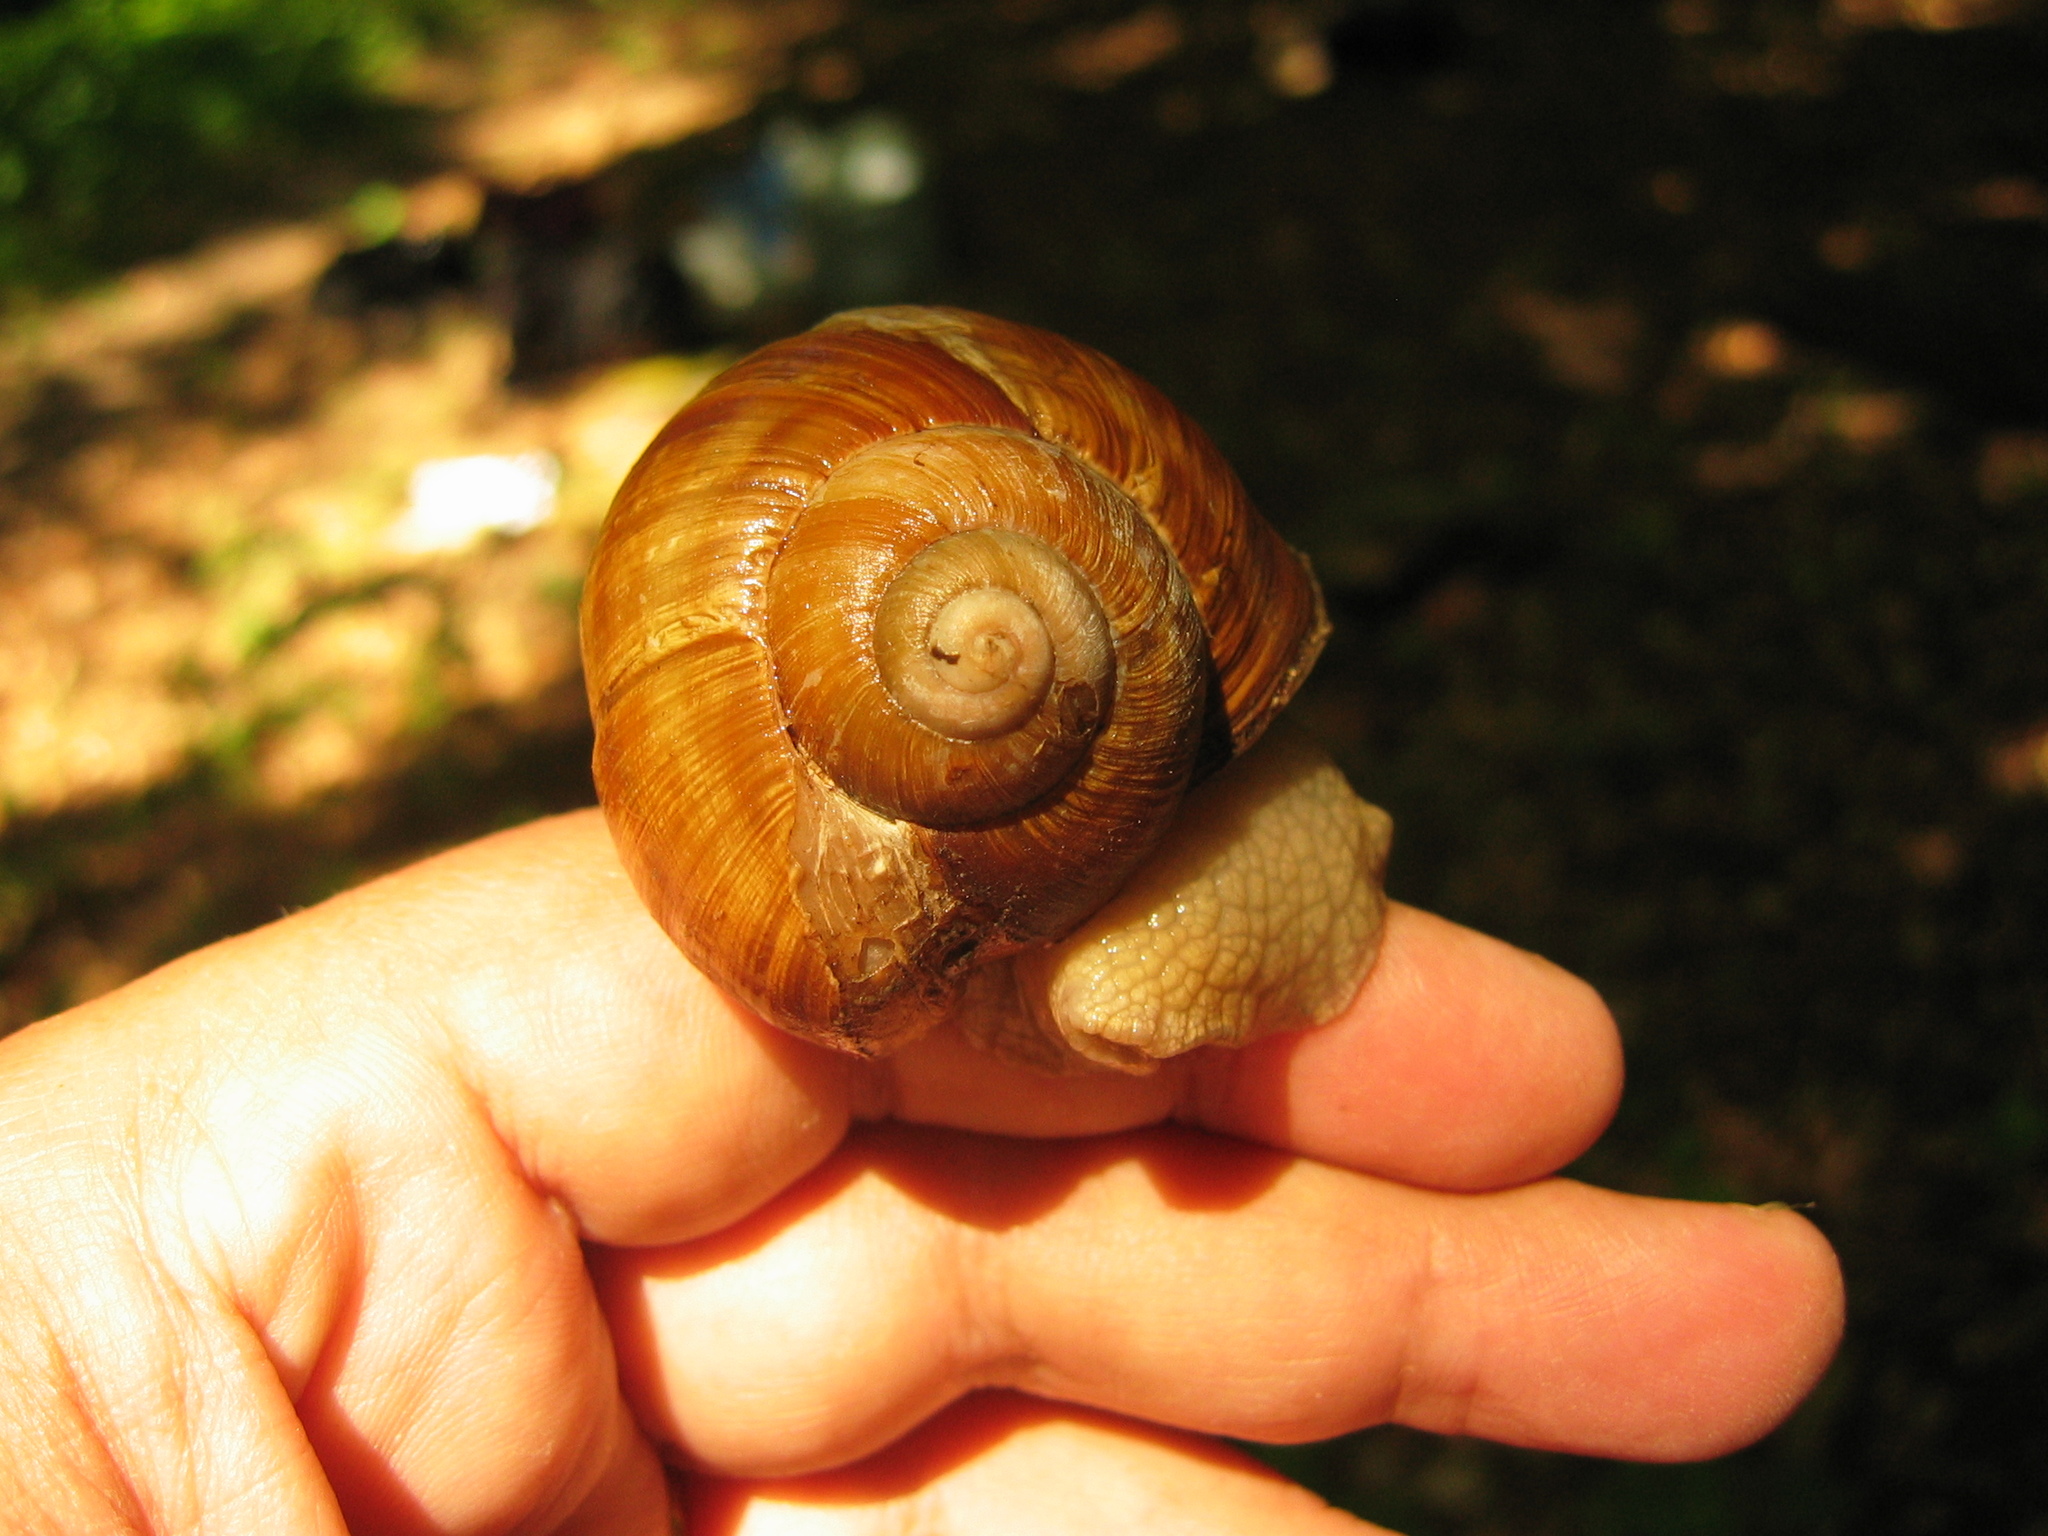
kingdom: Animalia
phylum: Mollusca
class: Gastropoda
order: Stylommatophora
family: Helicidae
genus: Helix
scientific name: Helix pomatia
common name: Roman snail
